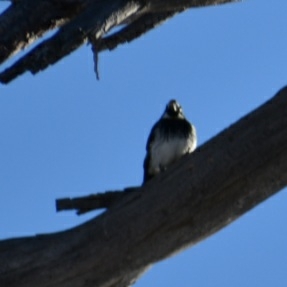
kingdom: Animalia
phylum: Chordata
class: Aves
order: Piciformes
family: Picidae
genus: Melanerpes
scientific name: Melanerpes formicivorus
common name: Acorn woodpecker
